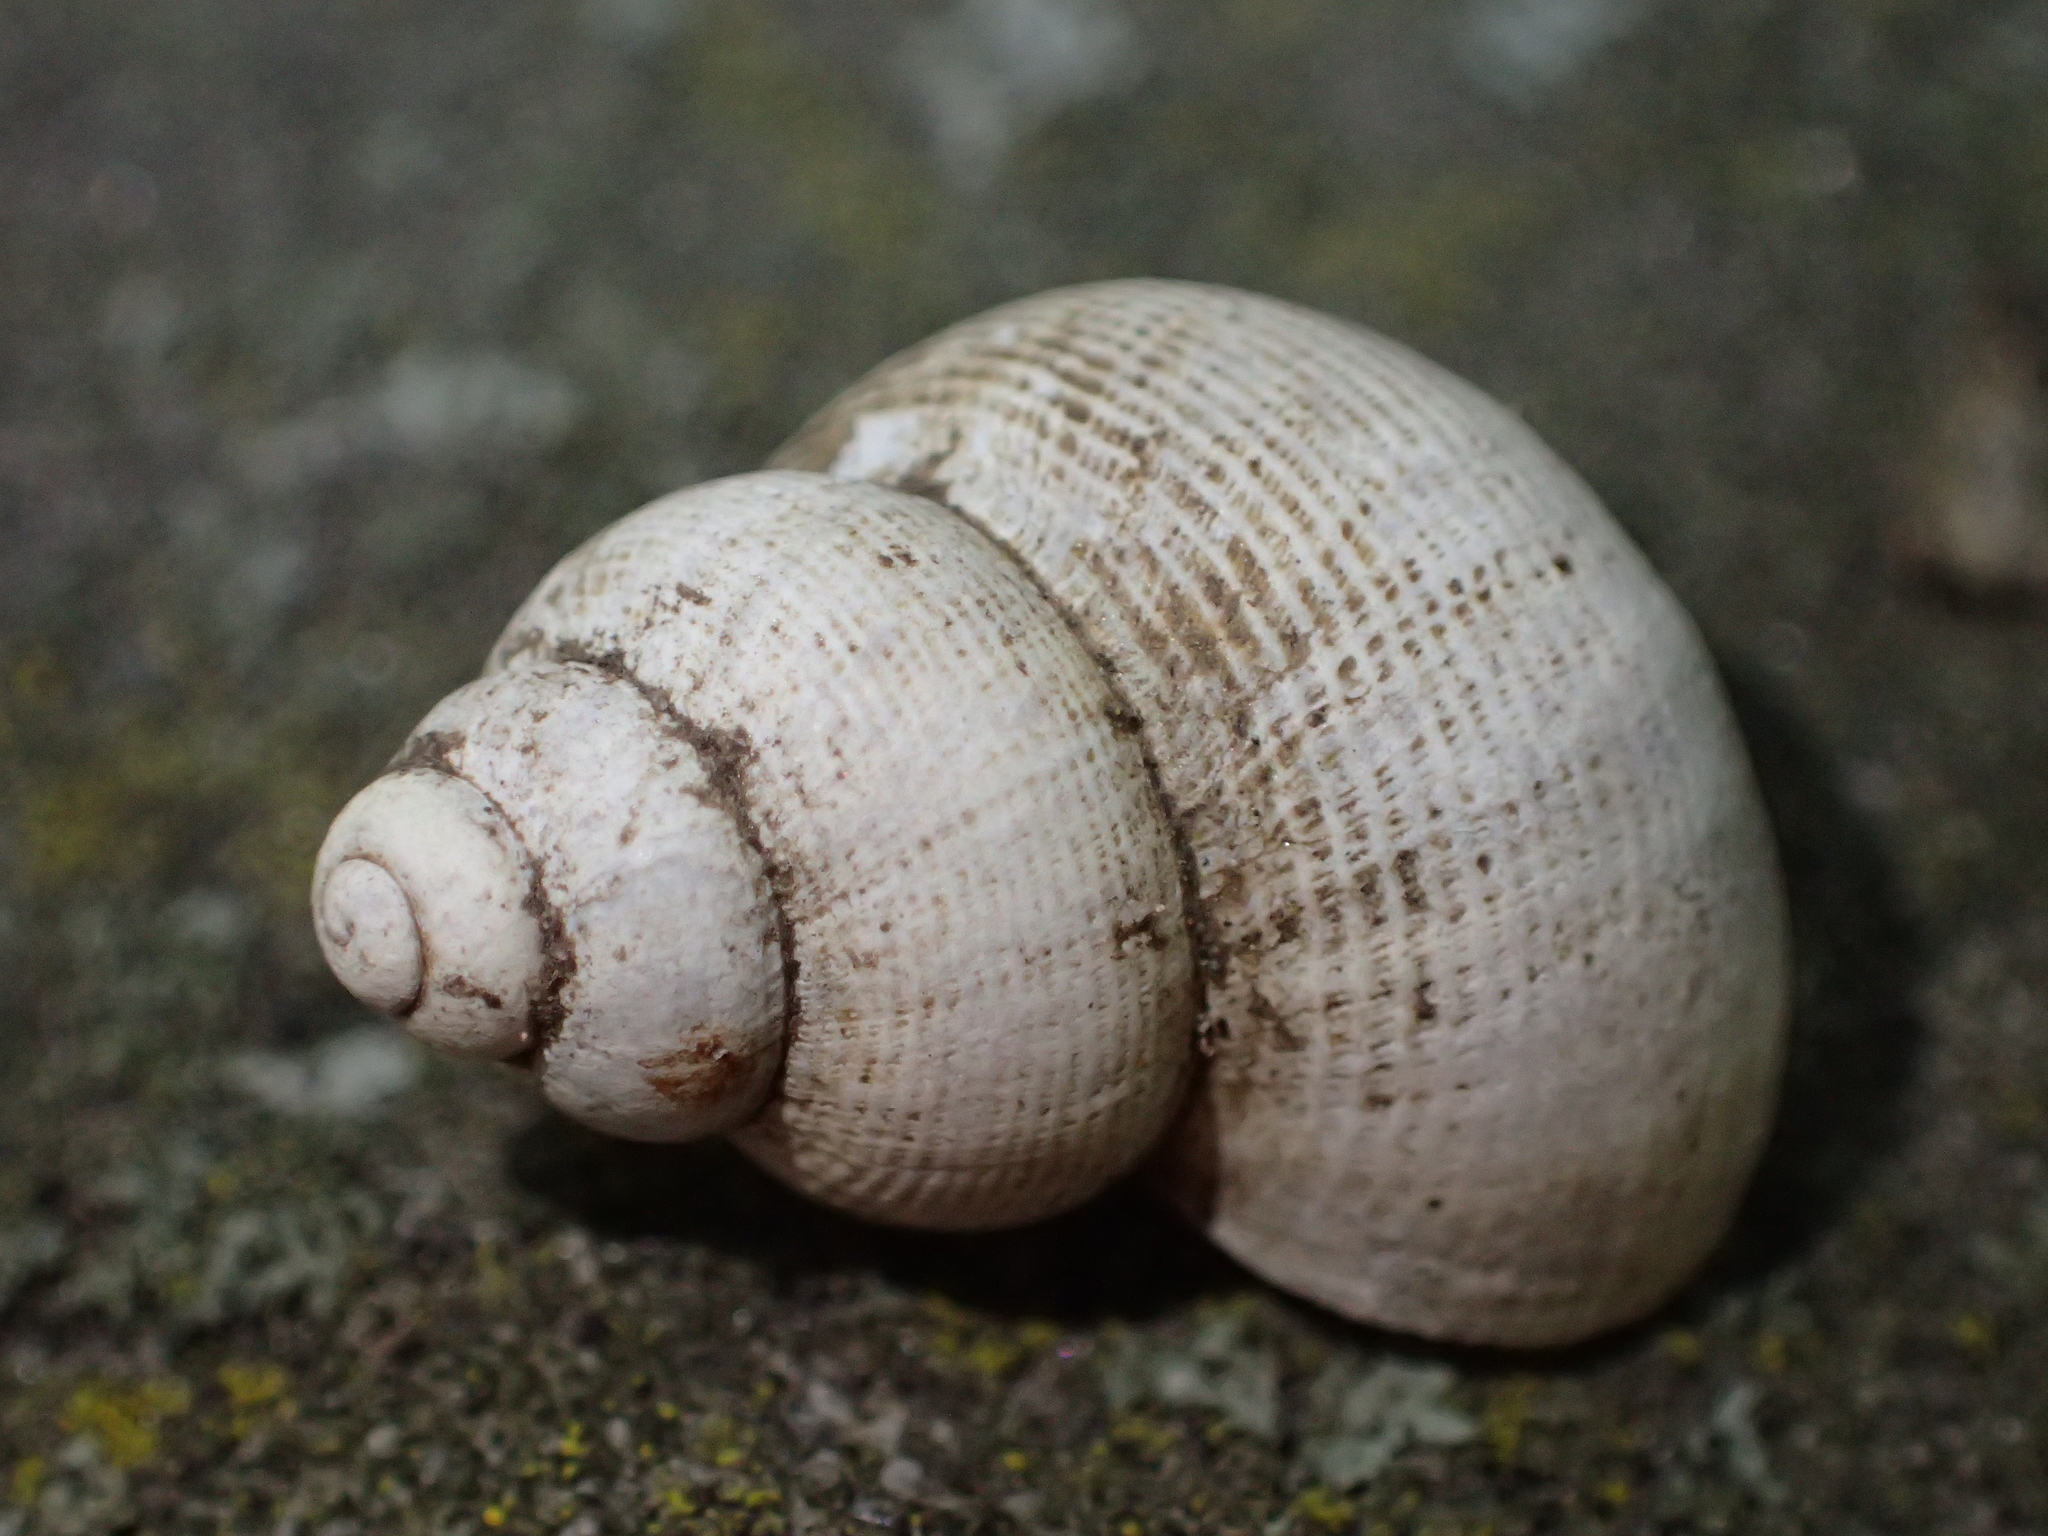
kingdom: Animalia
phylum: Mollusca
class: Gastropoda
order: Littorinimorpha
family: Pomatiidae
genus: Pomatias
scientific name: Pomatias elegans
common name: Red-mouthed snail
